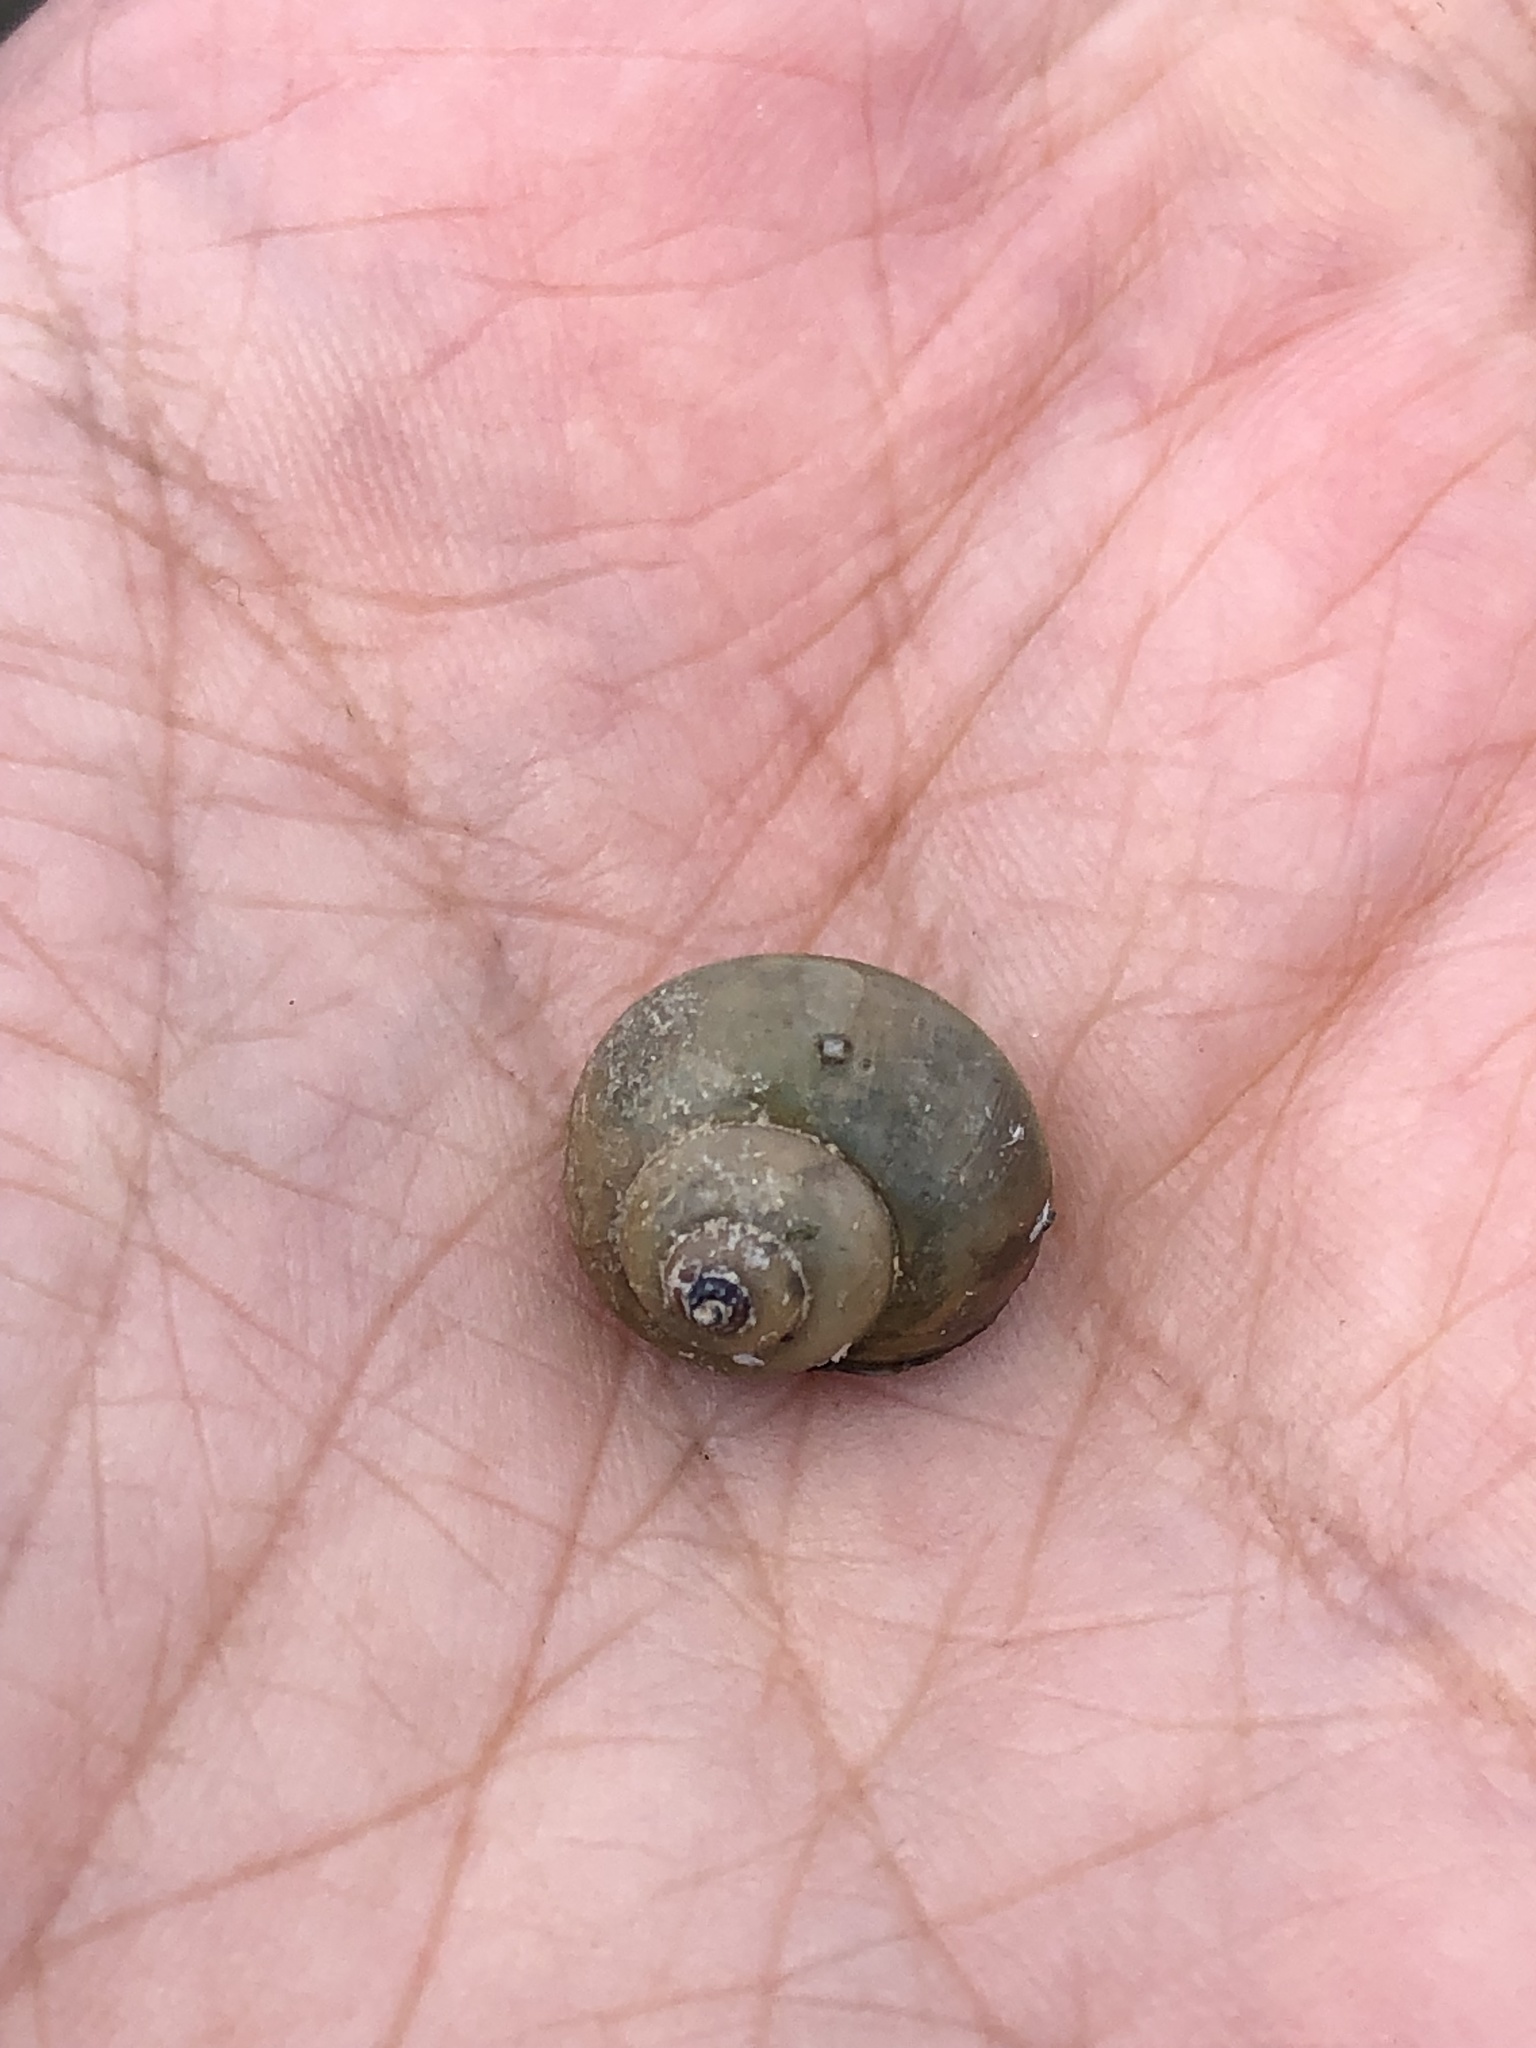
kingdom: Animalia
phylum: Mollusca
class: Gastropoda
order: Architaenioglossa
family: Viviparidae
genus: Cipangopaludina
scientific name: Cipangopaludina chinensis
